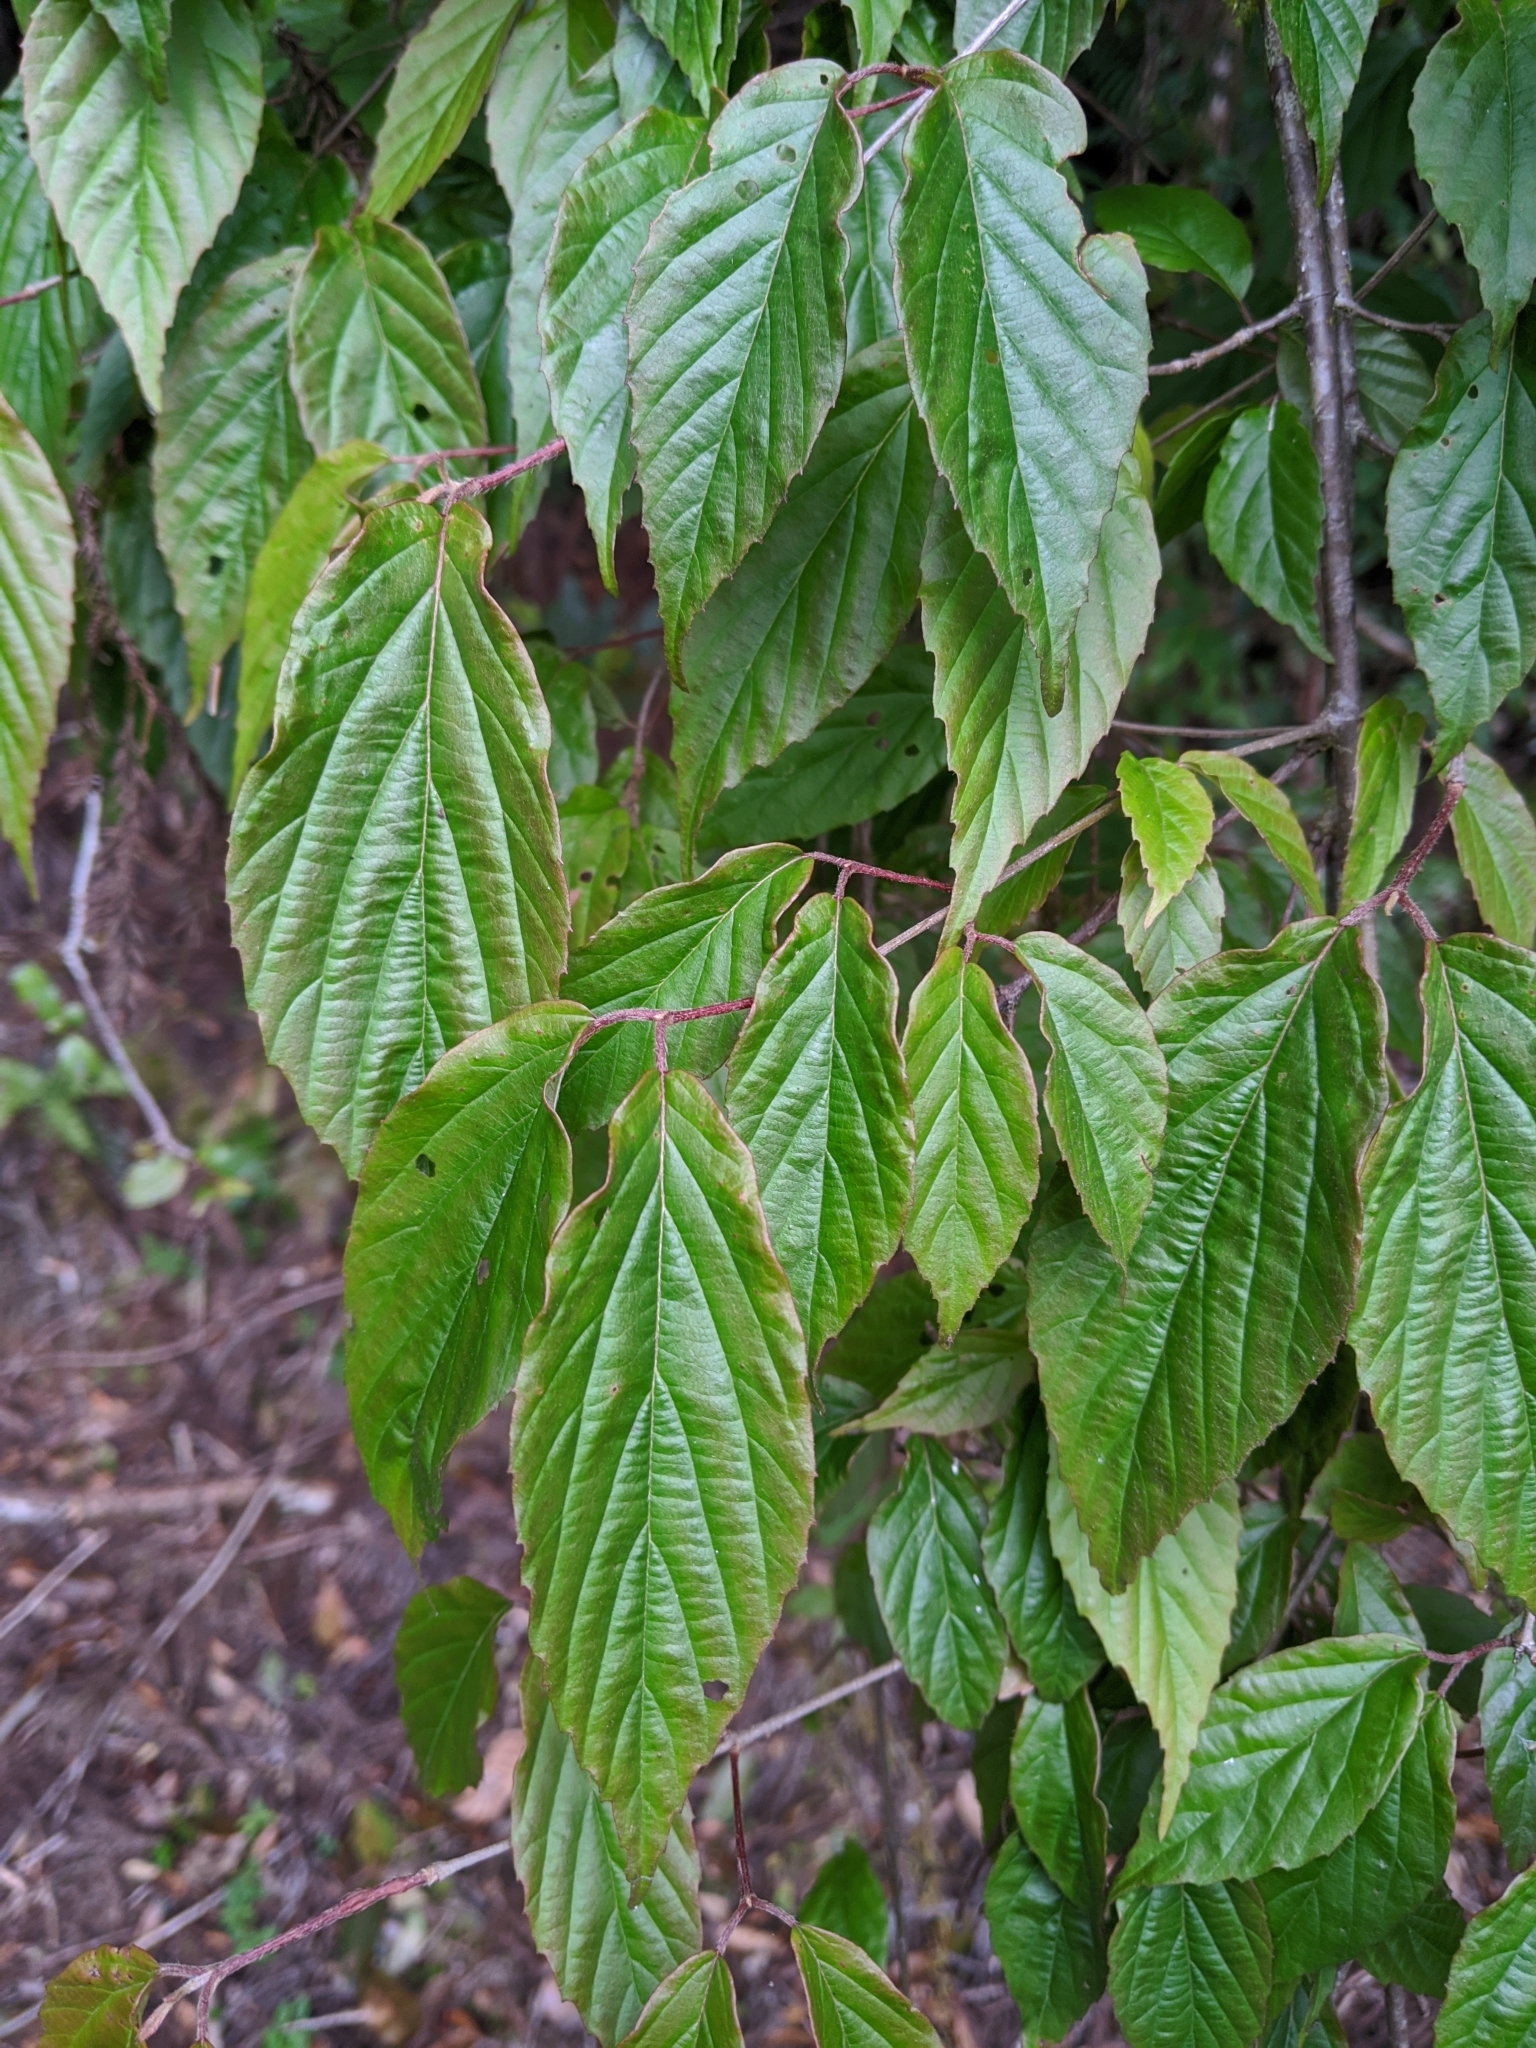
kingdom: Plantae
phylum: Tracheophyta
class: Magnoliopsida
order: Dipsacales
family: Viburnaceae
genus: Viburnum
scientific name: Viburnum luzonicum
